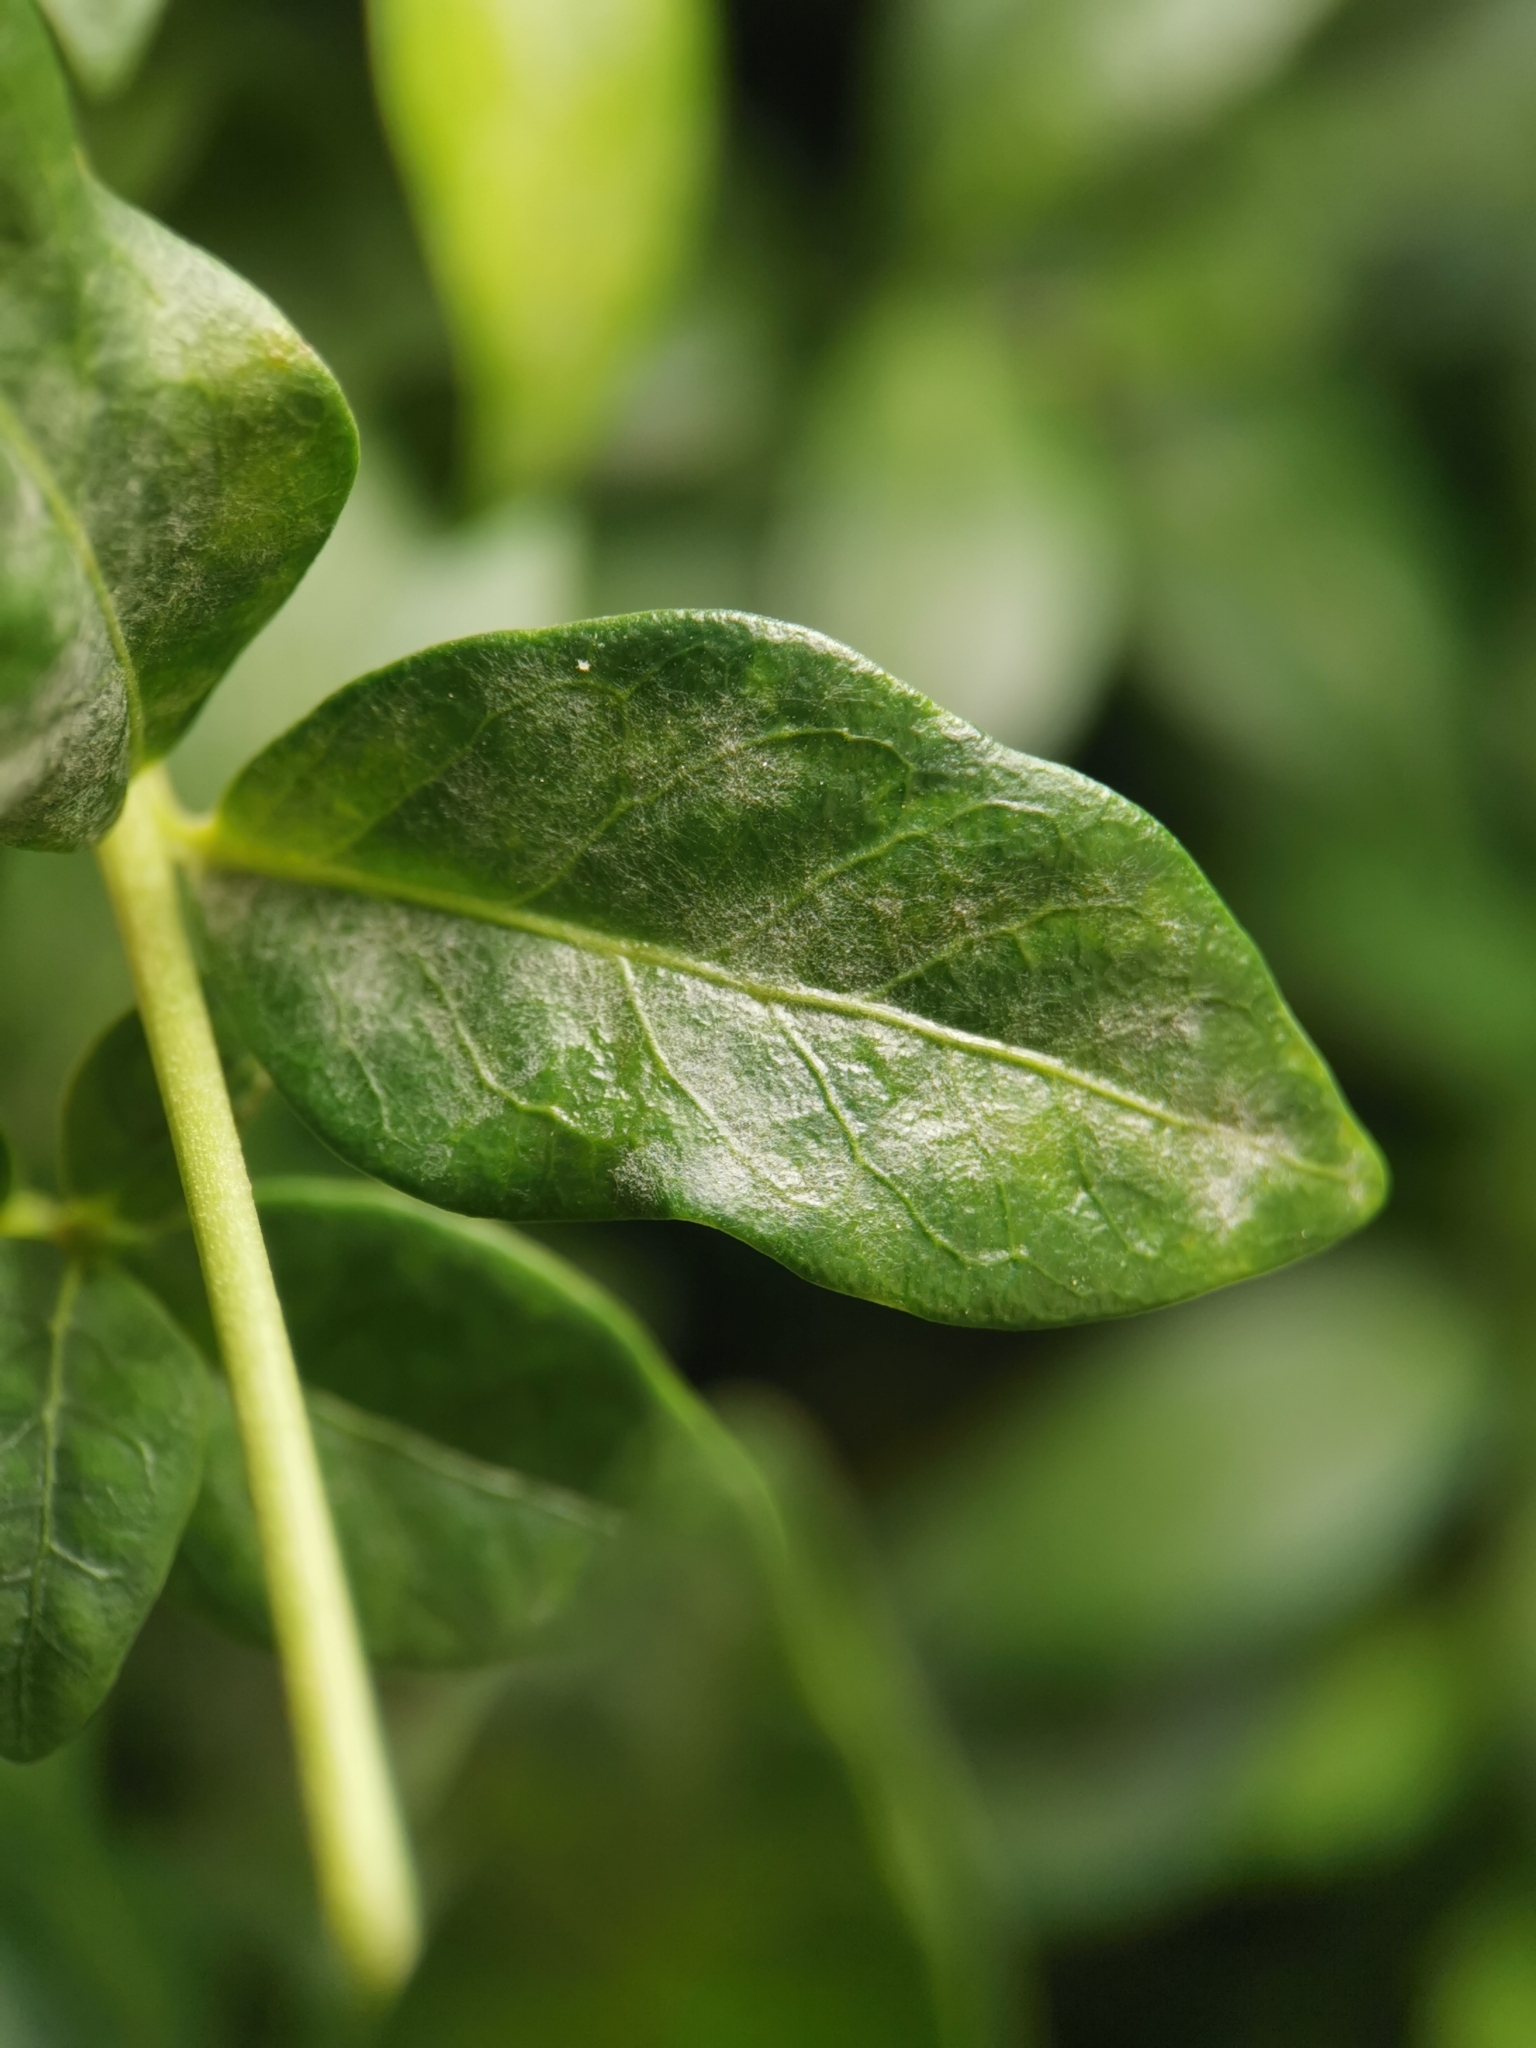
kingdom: Fungi
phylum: Ascomycota
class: Leotiomycetes
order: Helotiales
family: Erysiphaceae
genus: Pseudoidium
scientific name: Pseudoidium vincae
